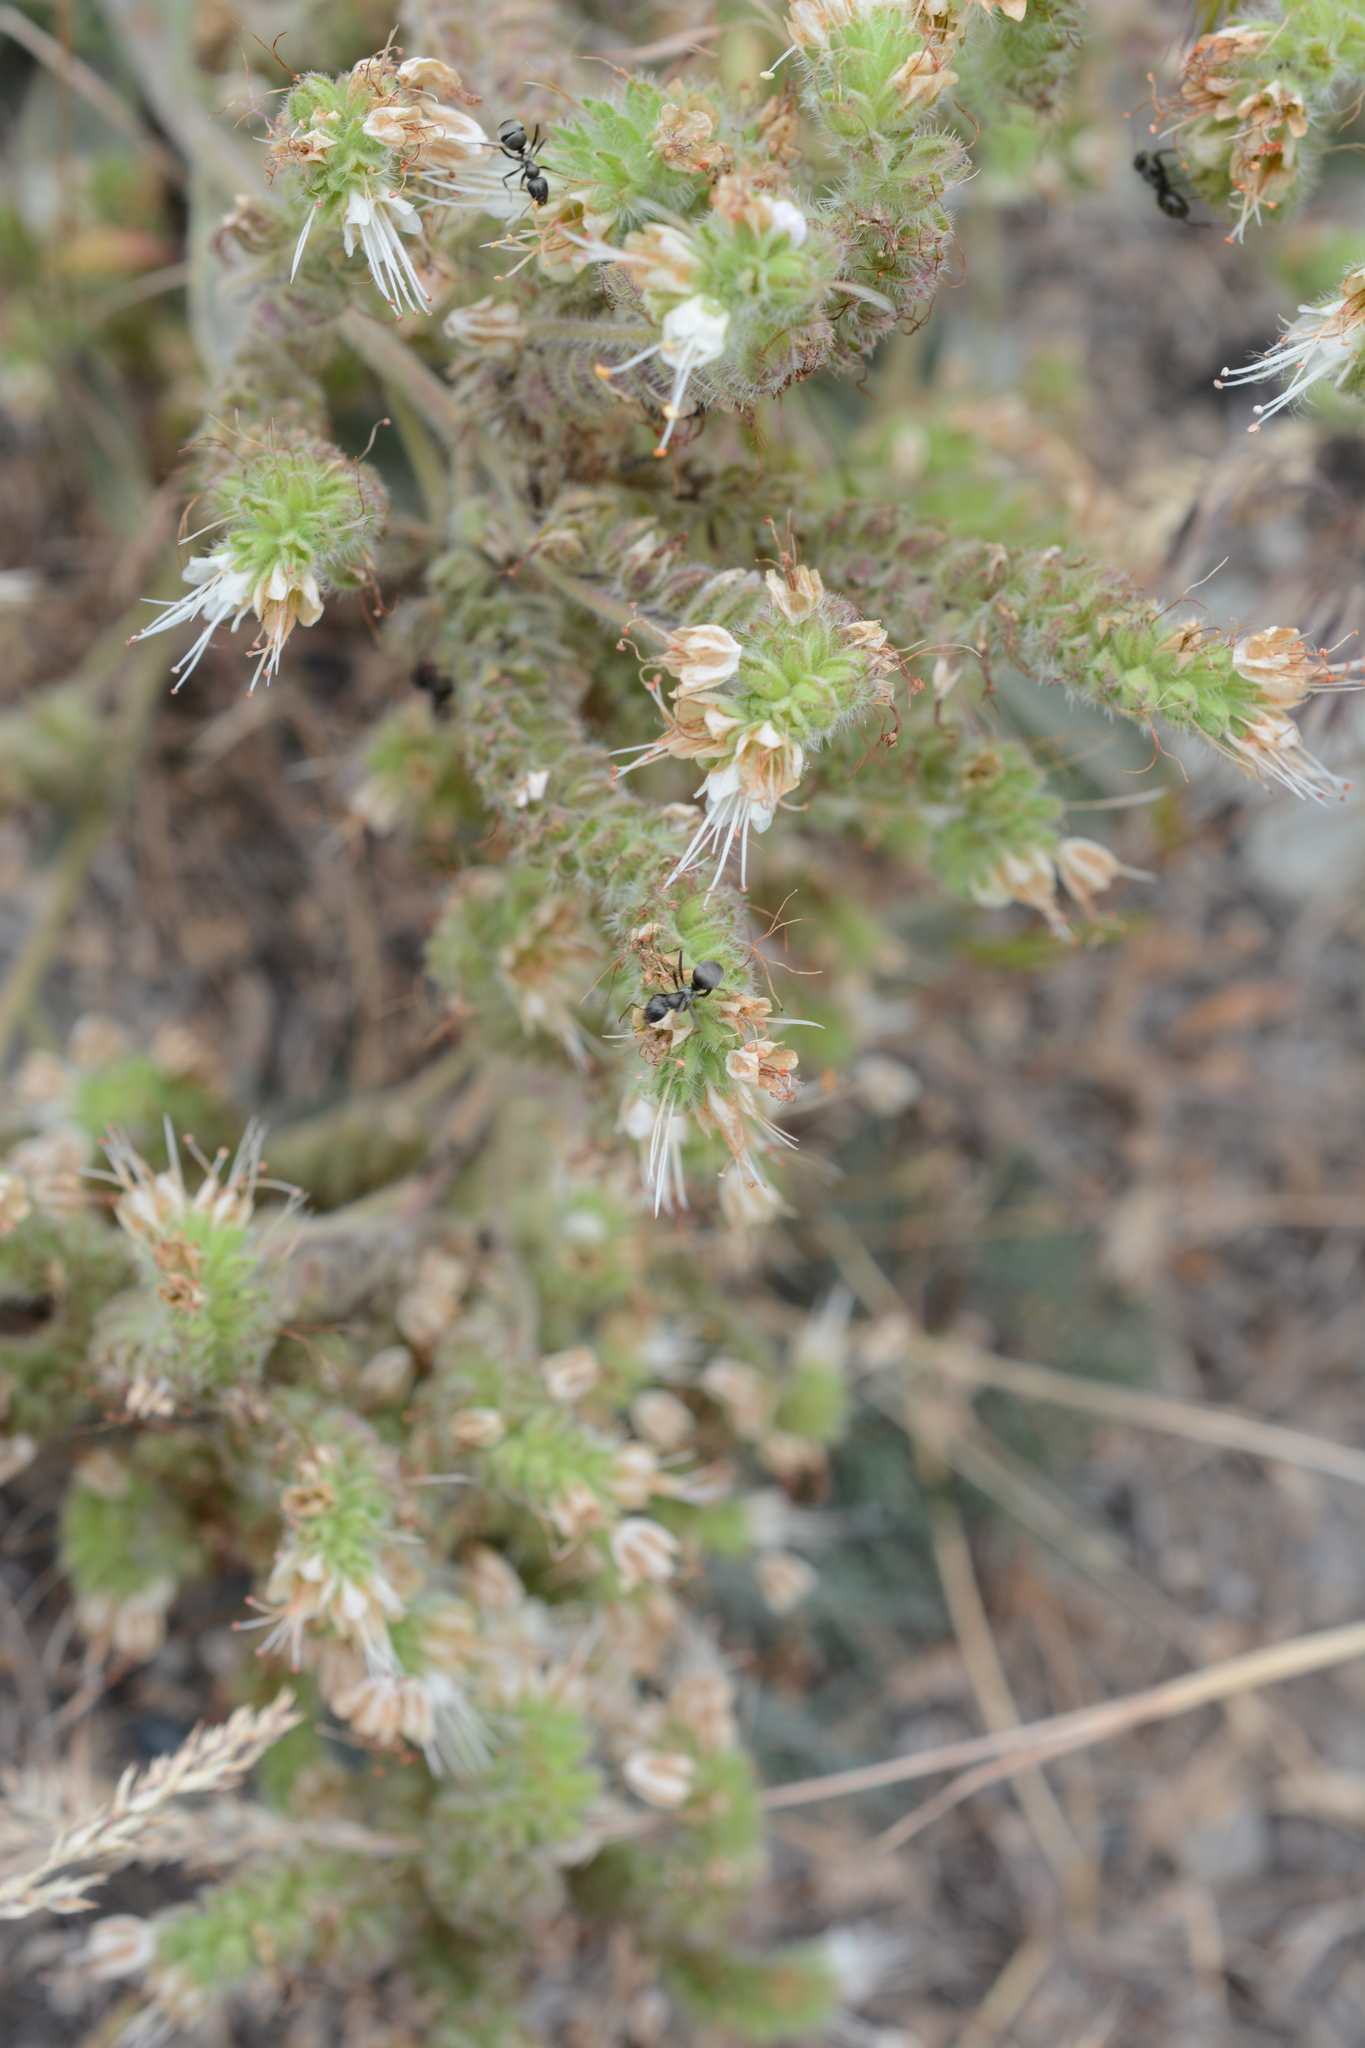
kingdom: Plantae
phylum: Tracheophyta
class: Magnoliopsida
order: Boraginales
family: Hydrophyllaceae
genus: Phacelia
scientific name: Phacelia hastata
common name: Silver-leaved phacelia
